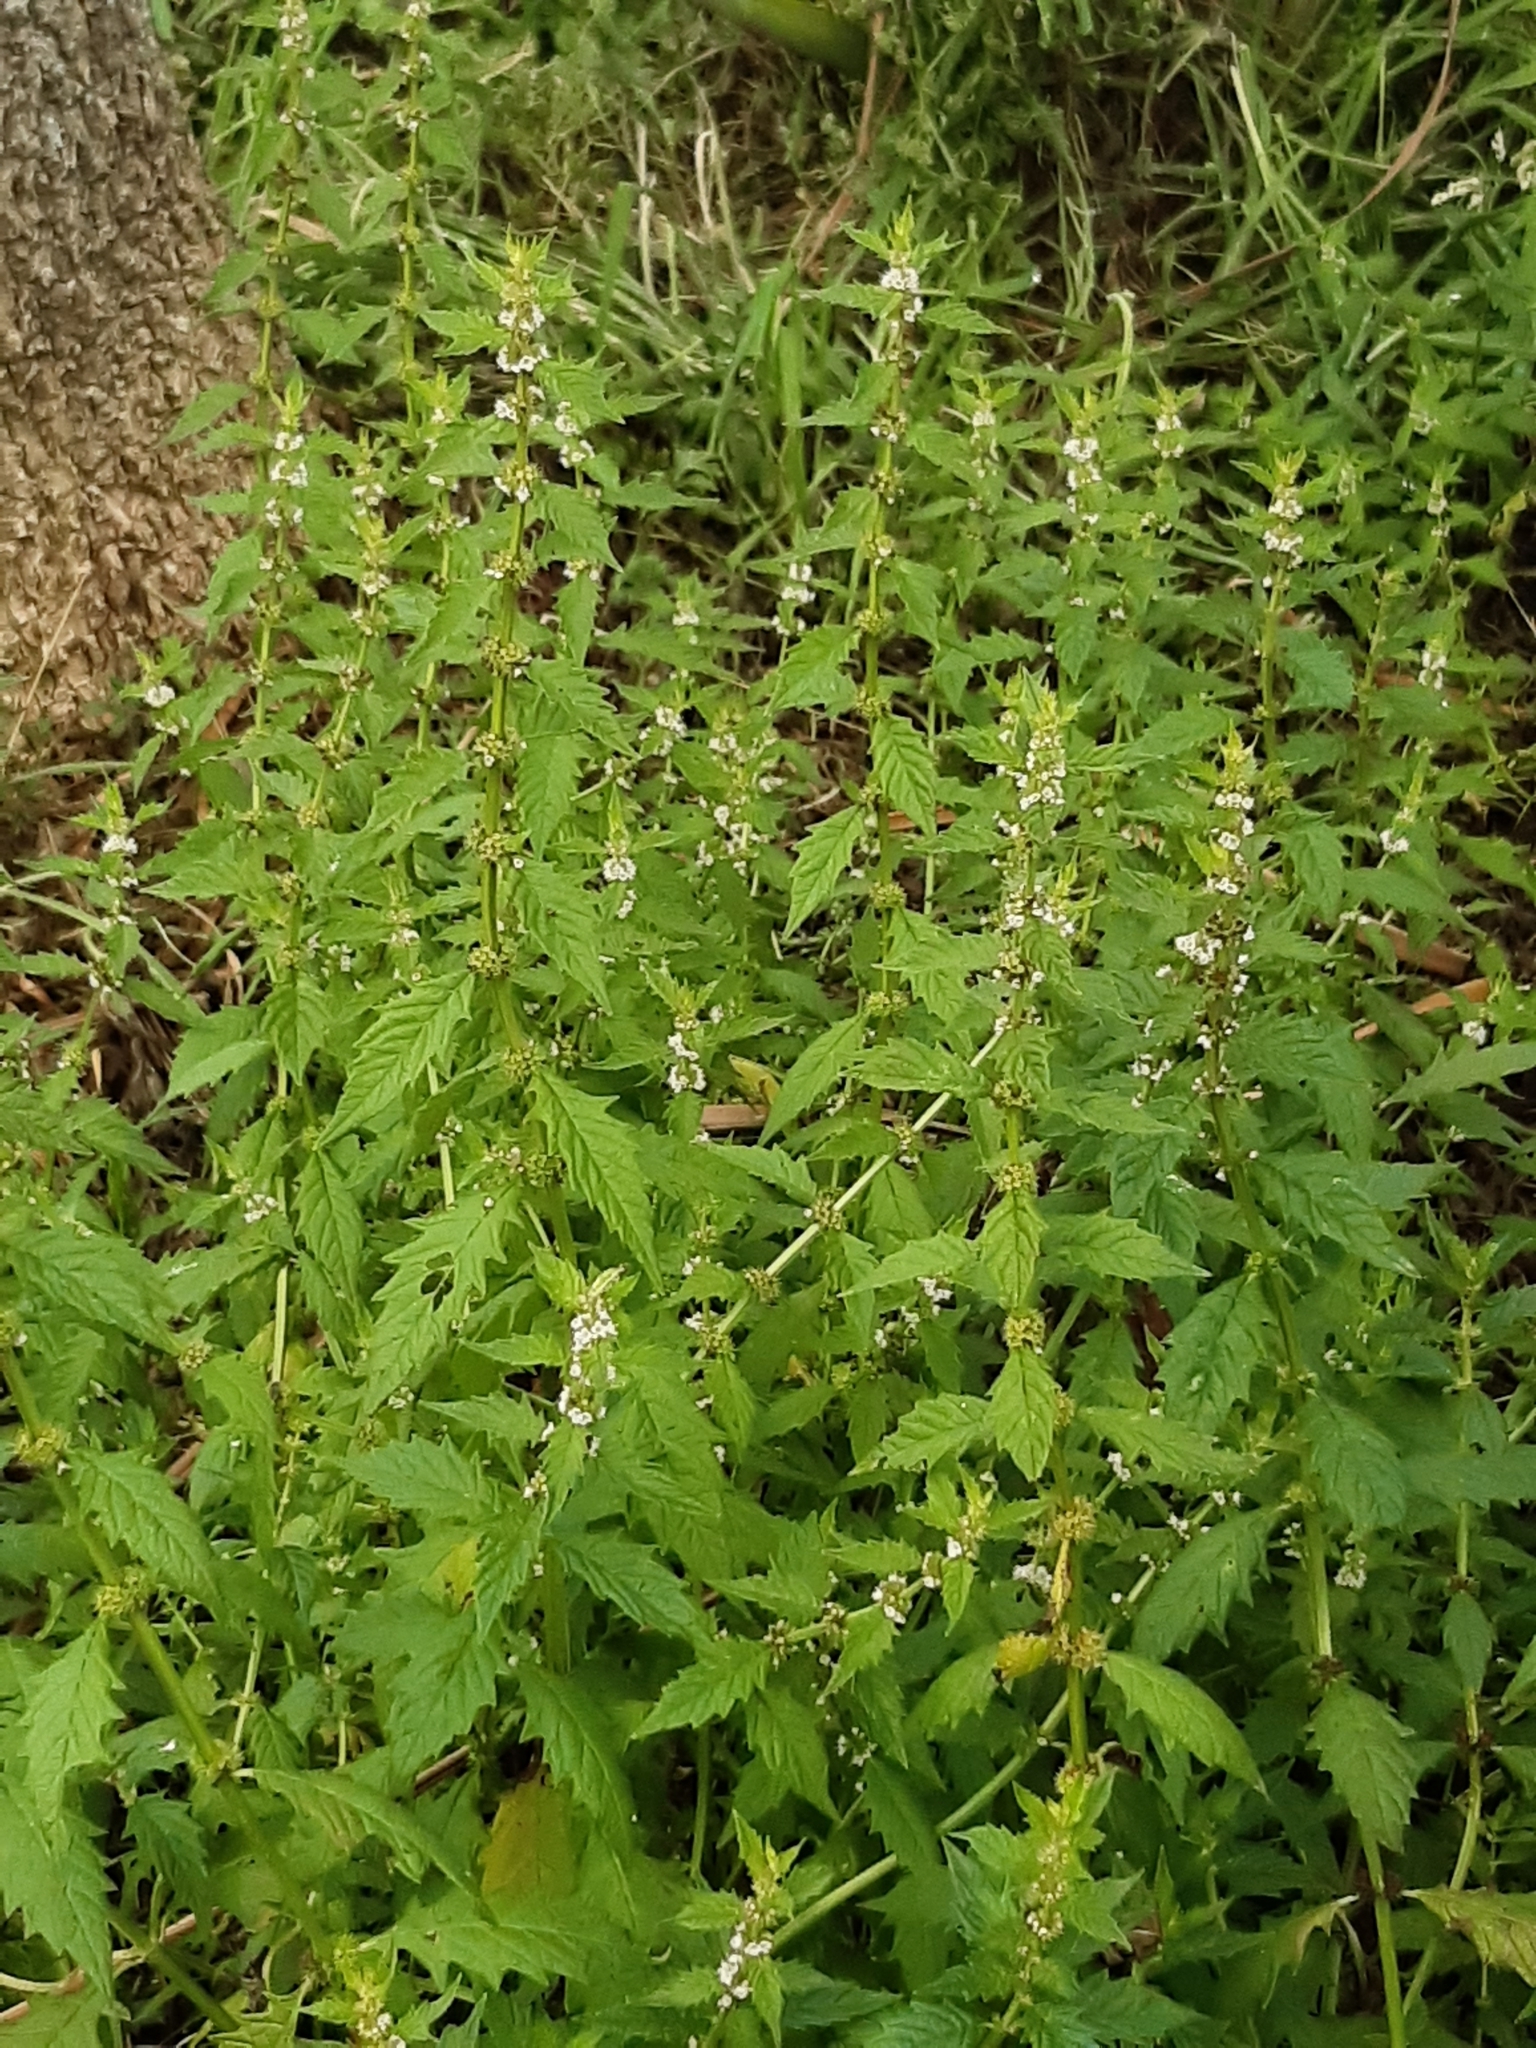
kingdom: Plantae
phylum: Tracheophyta
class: Magnoliopsida
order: Lamiales
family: Lamiaceae
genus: Lycopus
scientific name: Lycopus europaeus
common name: European bugleweed
